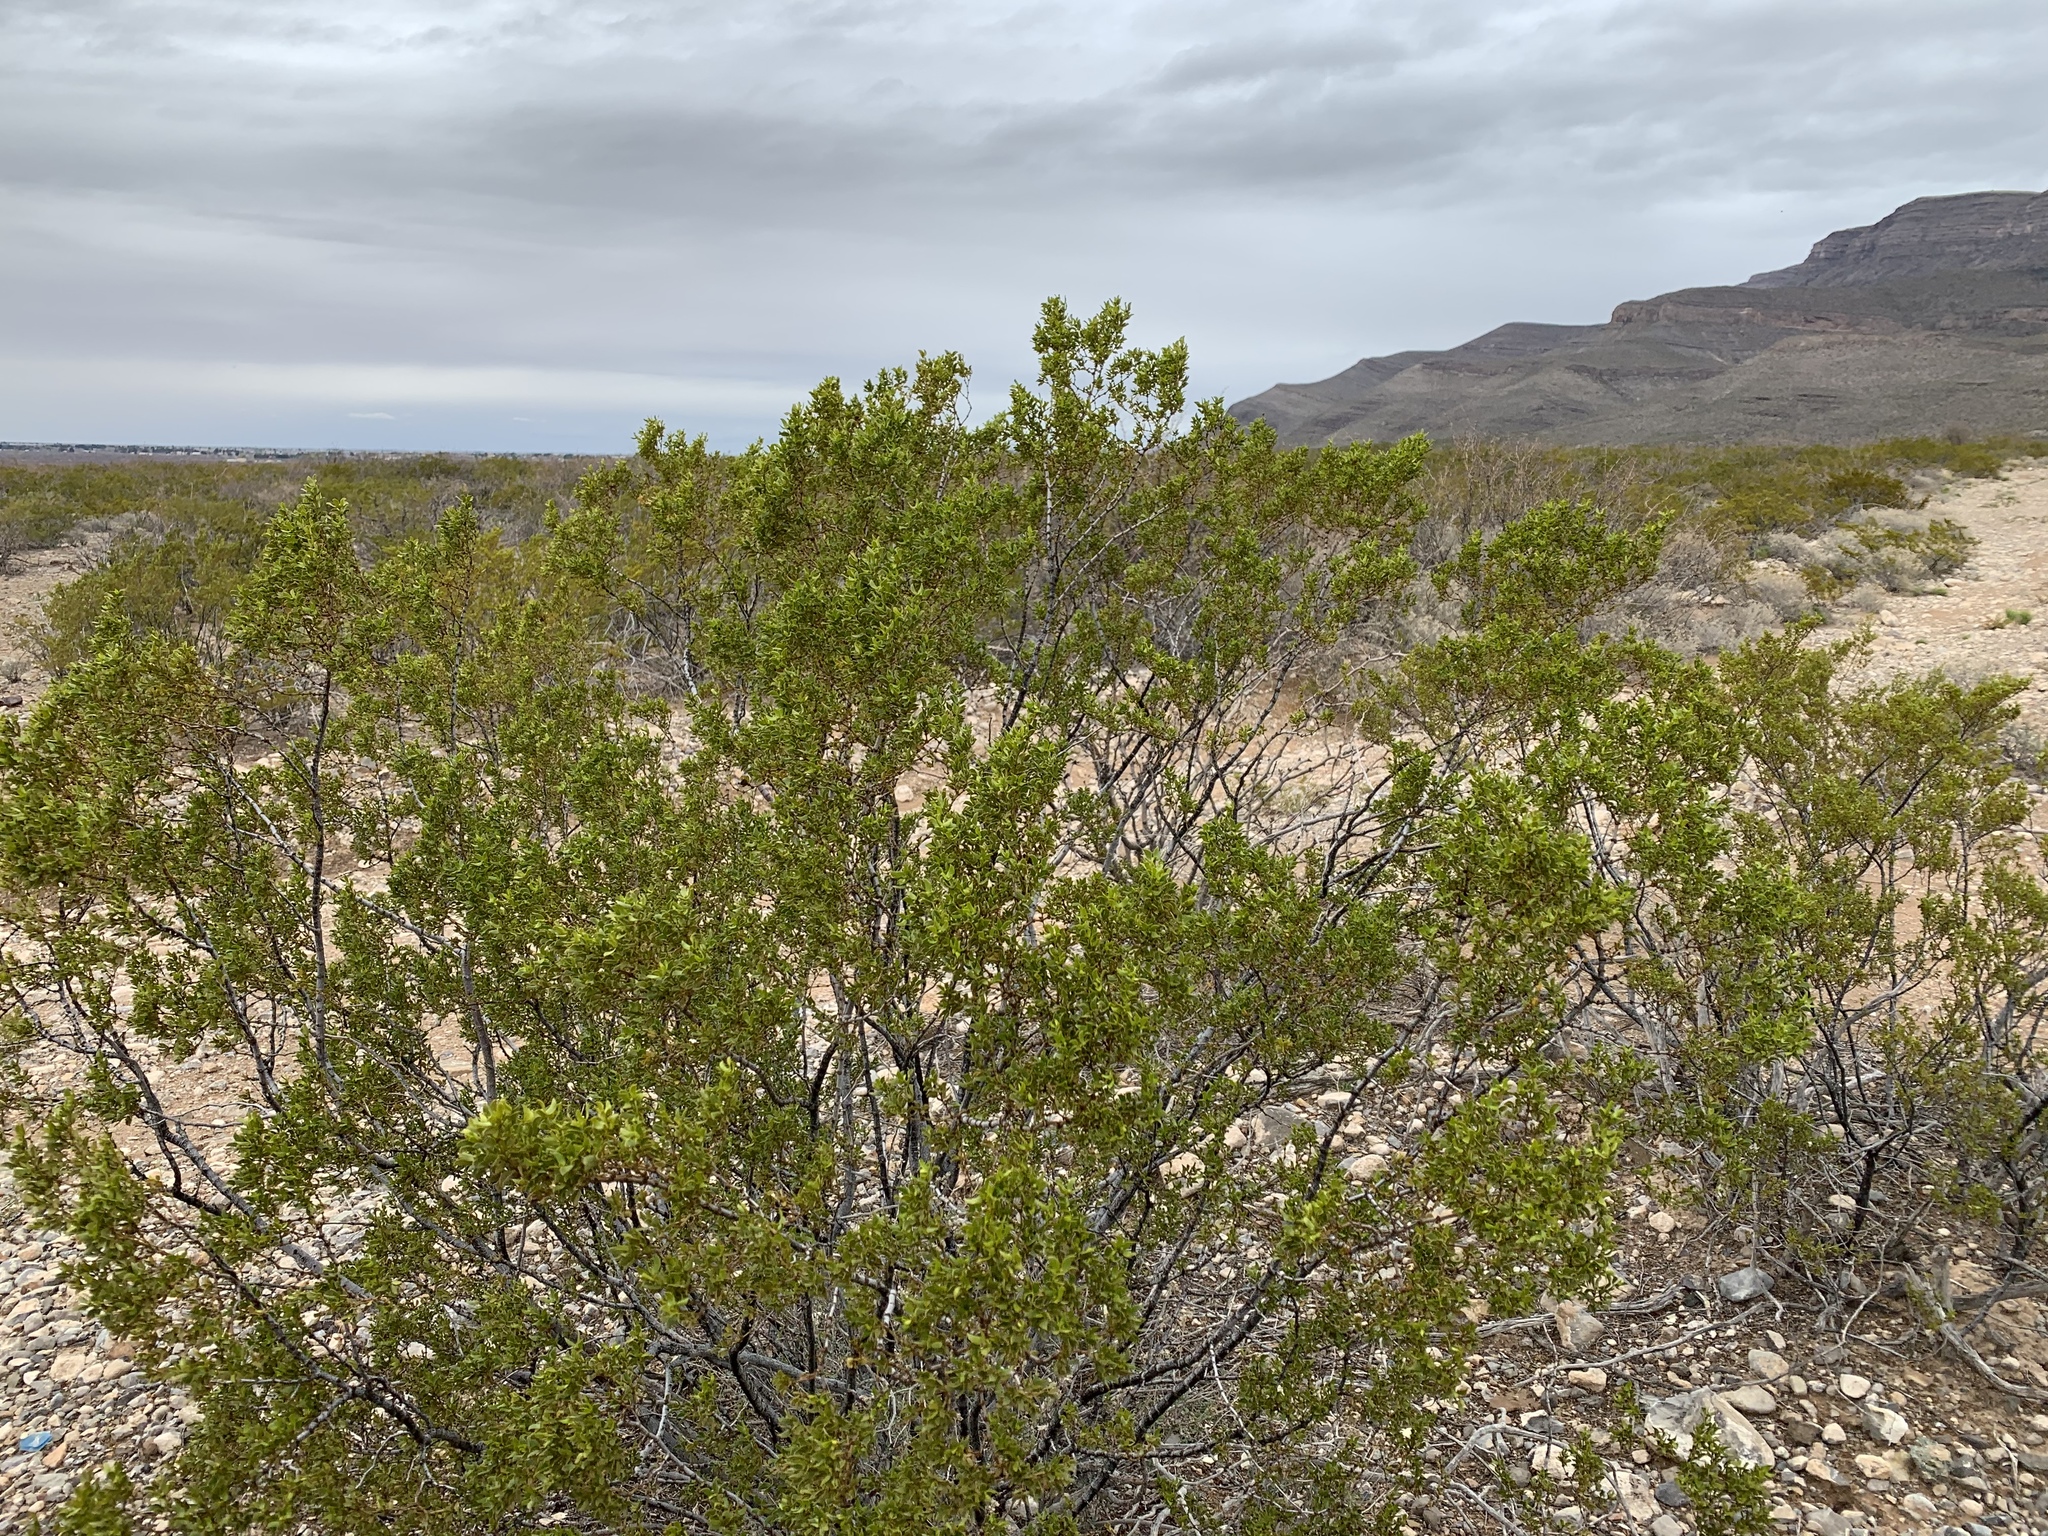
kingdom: Plantae
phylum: Tracheophyta
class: Magnoliopsida
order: Zygophyllales
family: Zygophyllaceae
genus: Larrea
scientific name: Larrea tridentata
